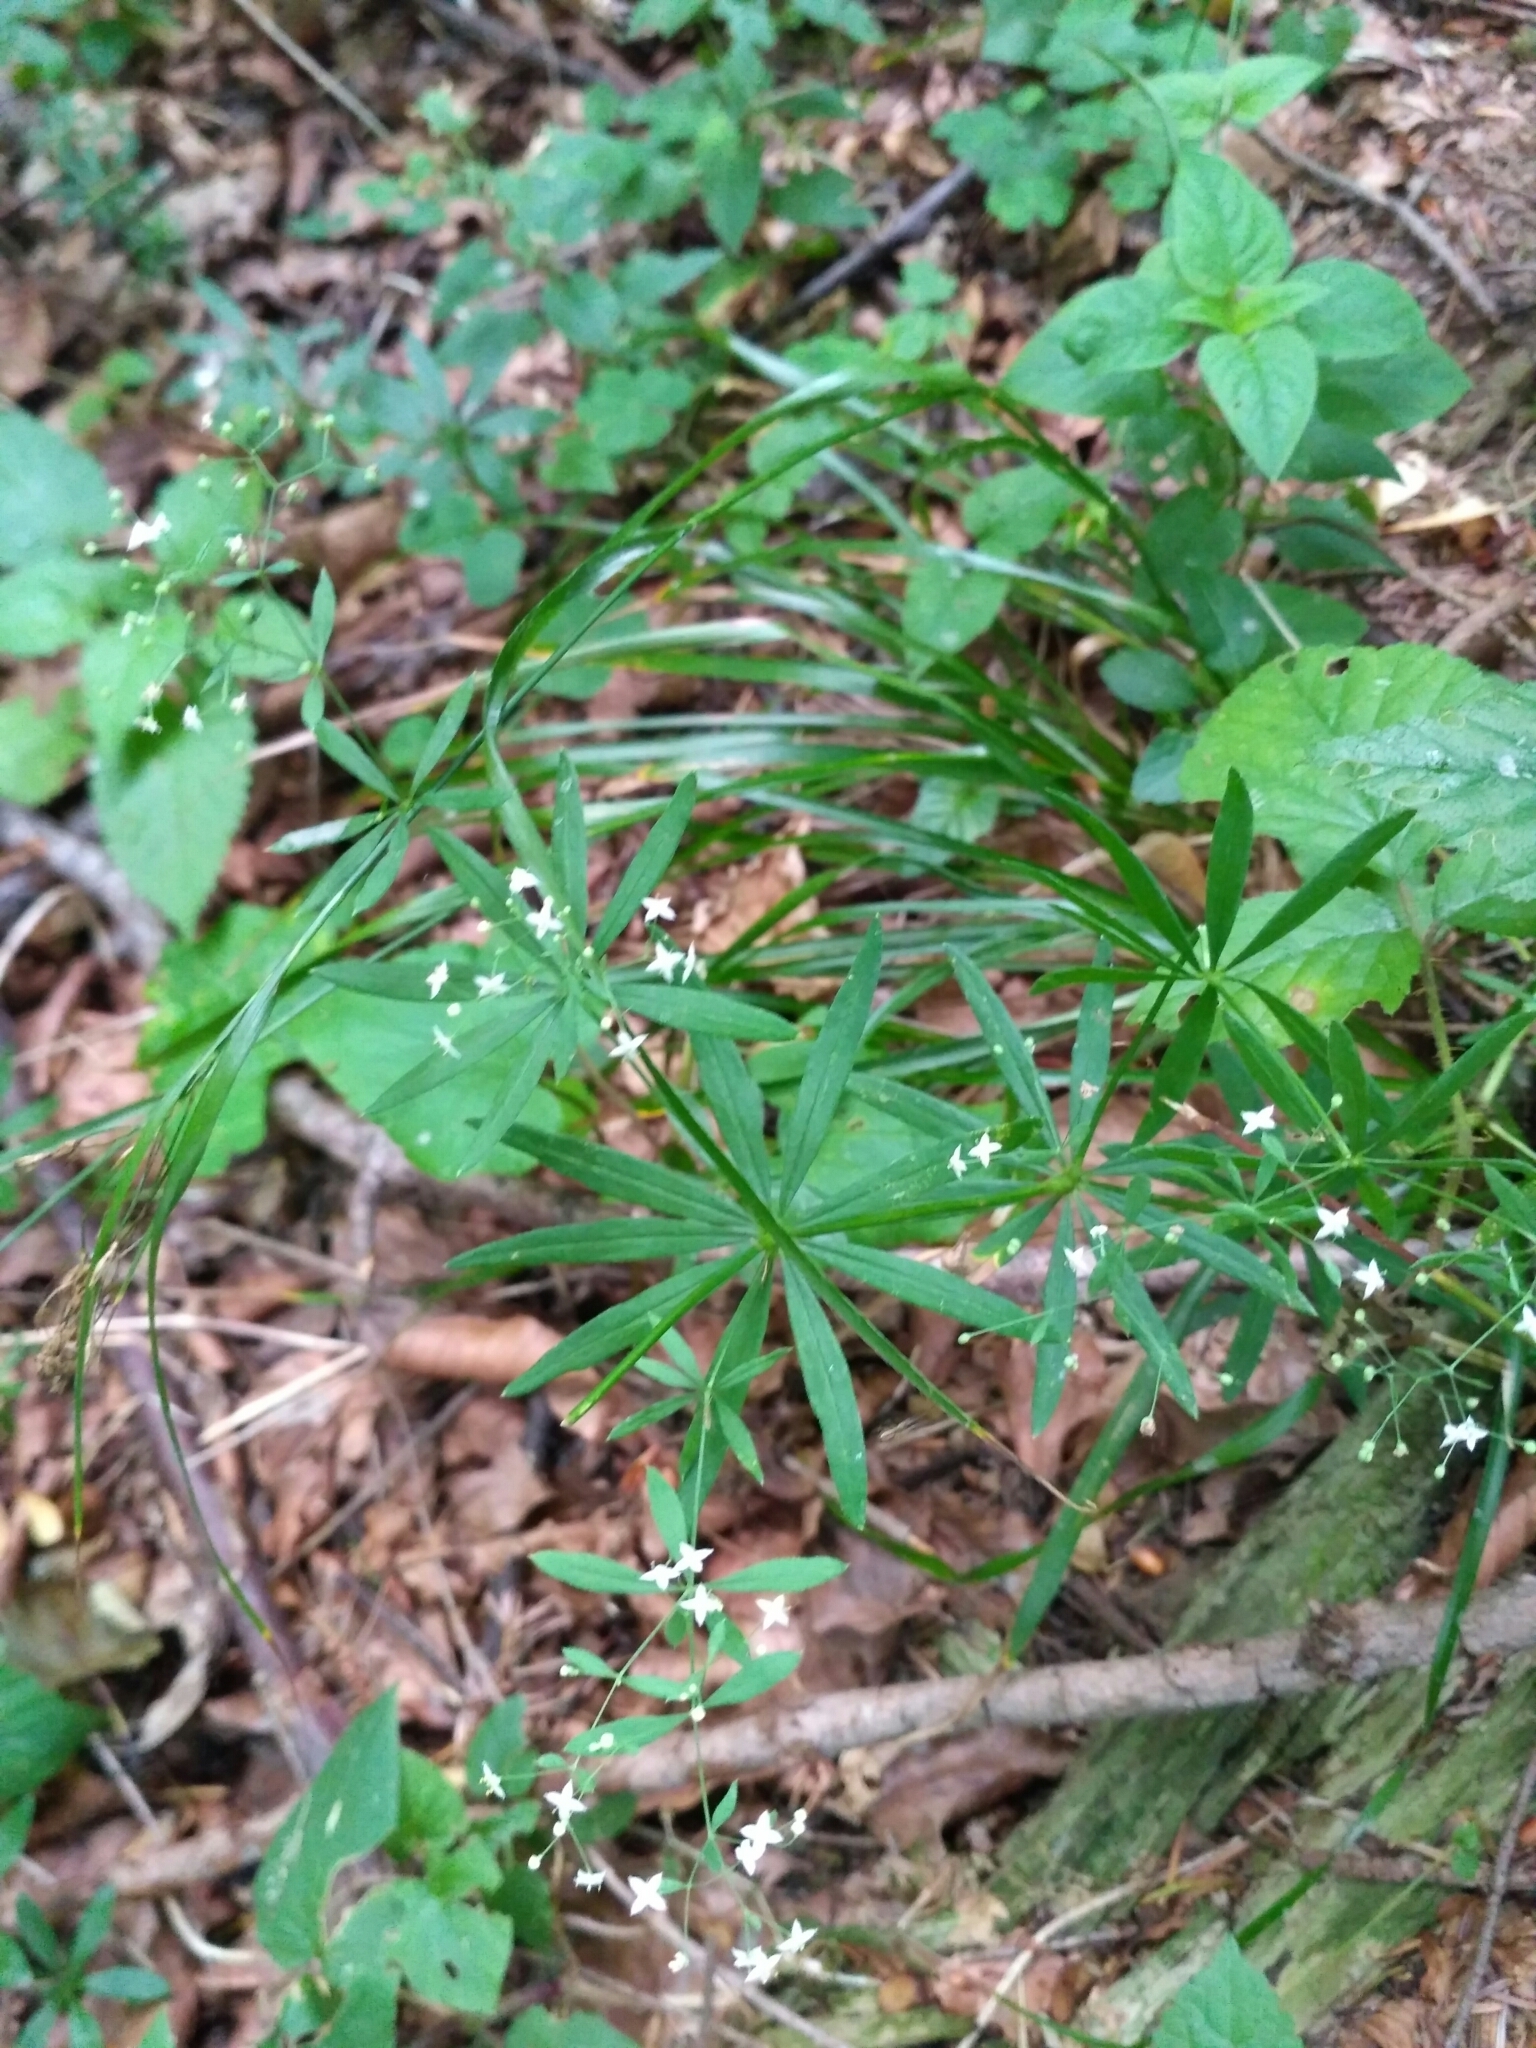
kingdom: Plantae
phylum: Tracheophyta
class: Magnoliopsida
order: Gentianales
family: Rubiaceae
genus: Galium
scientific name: Galium intermedium
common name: Bedstraw
